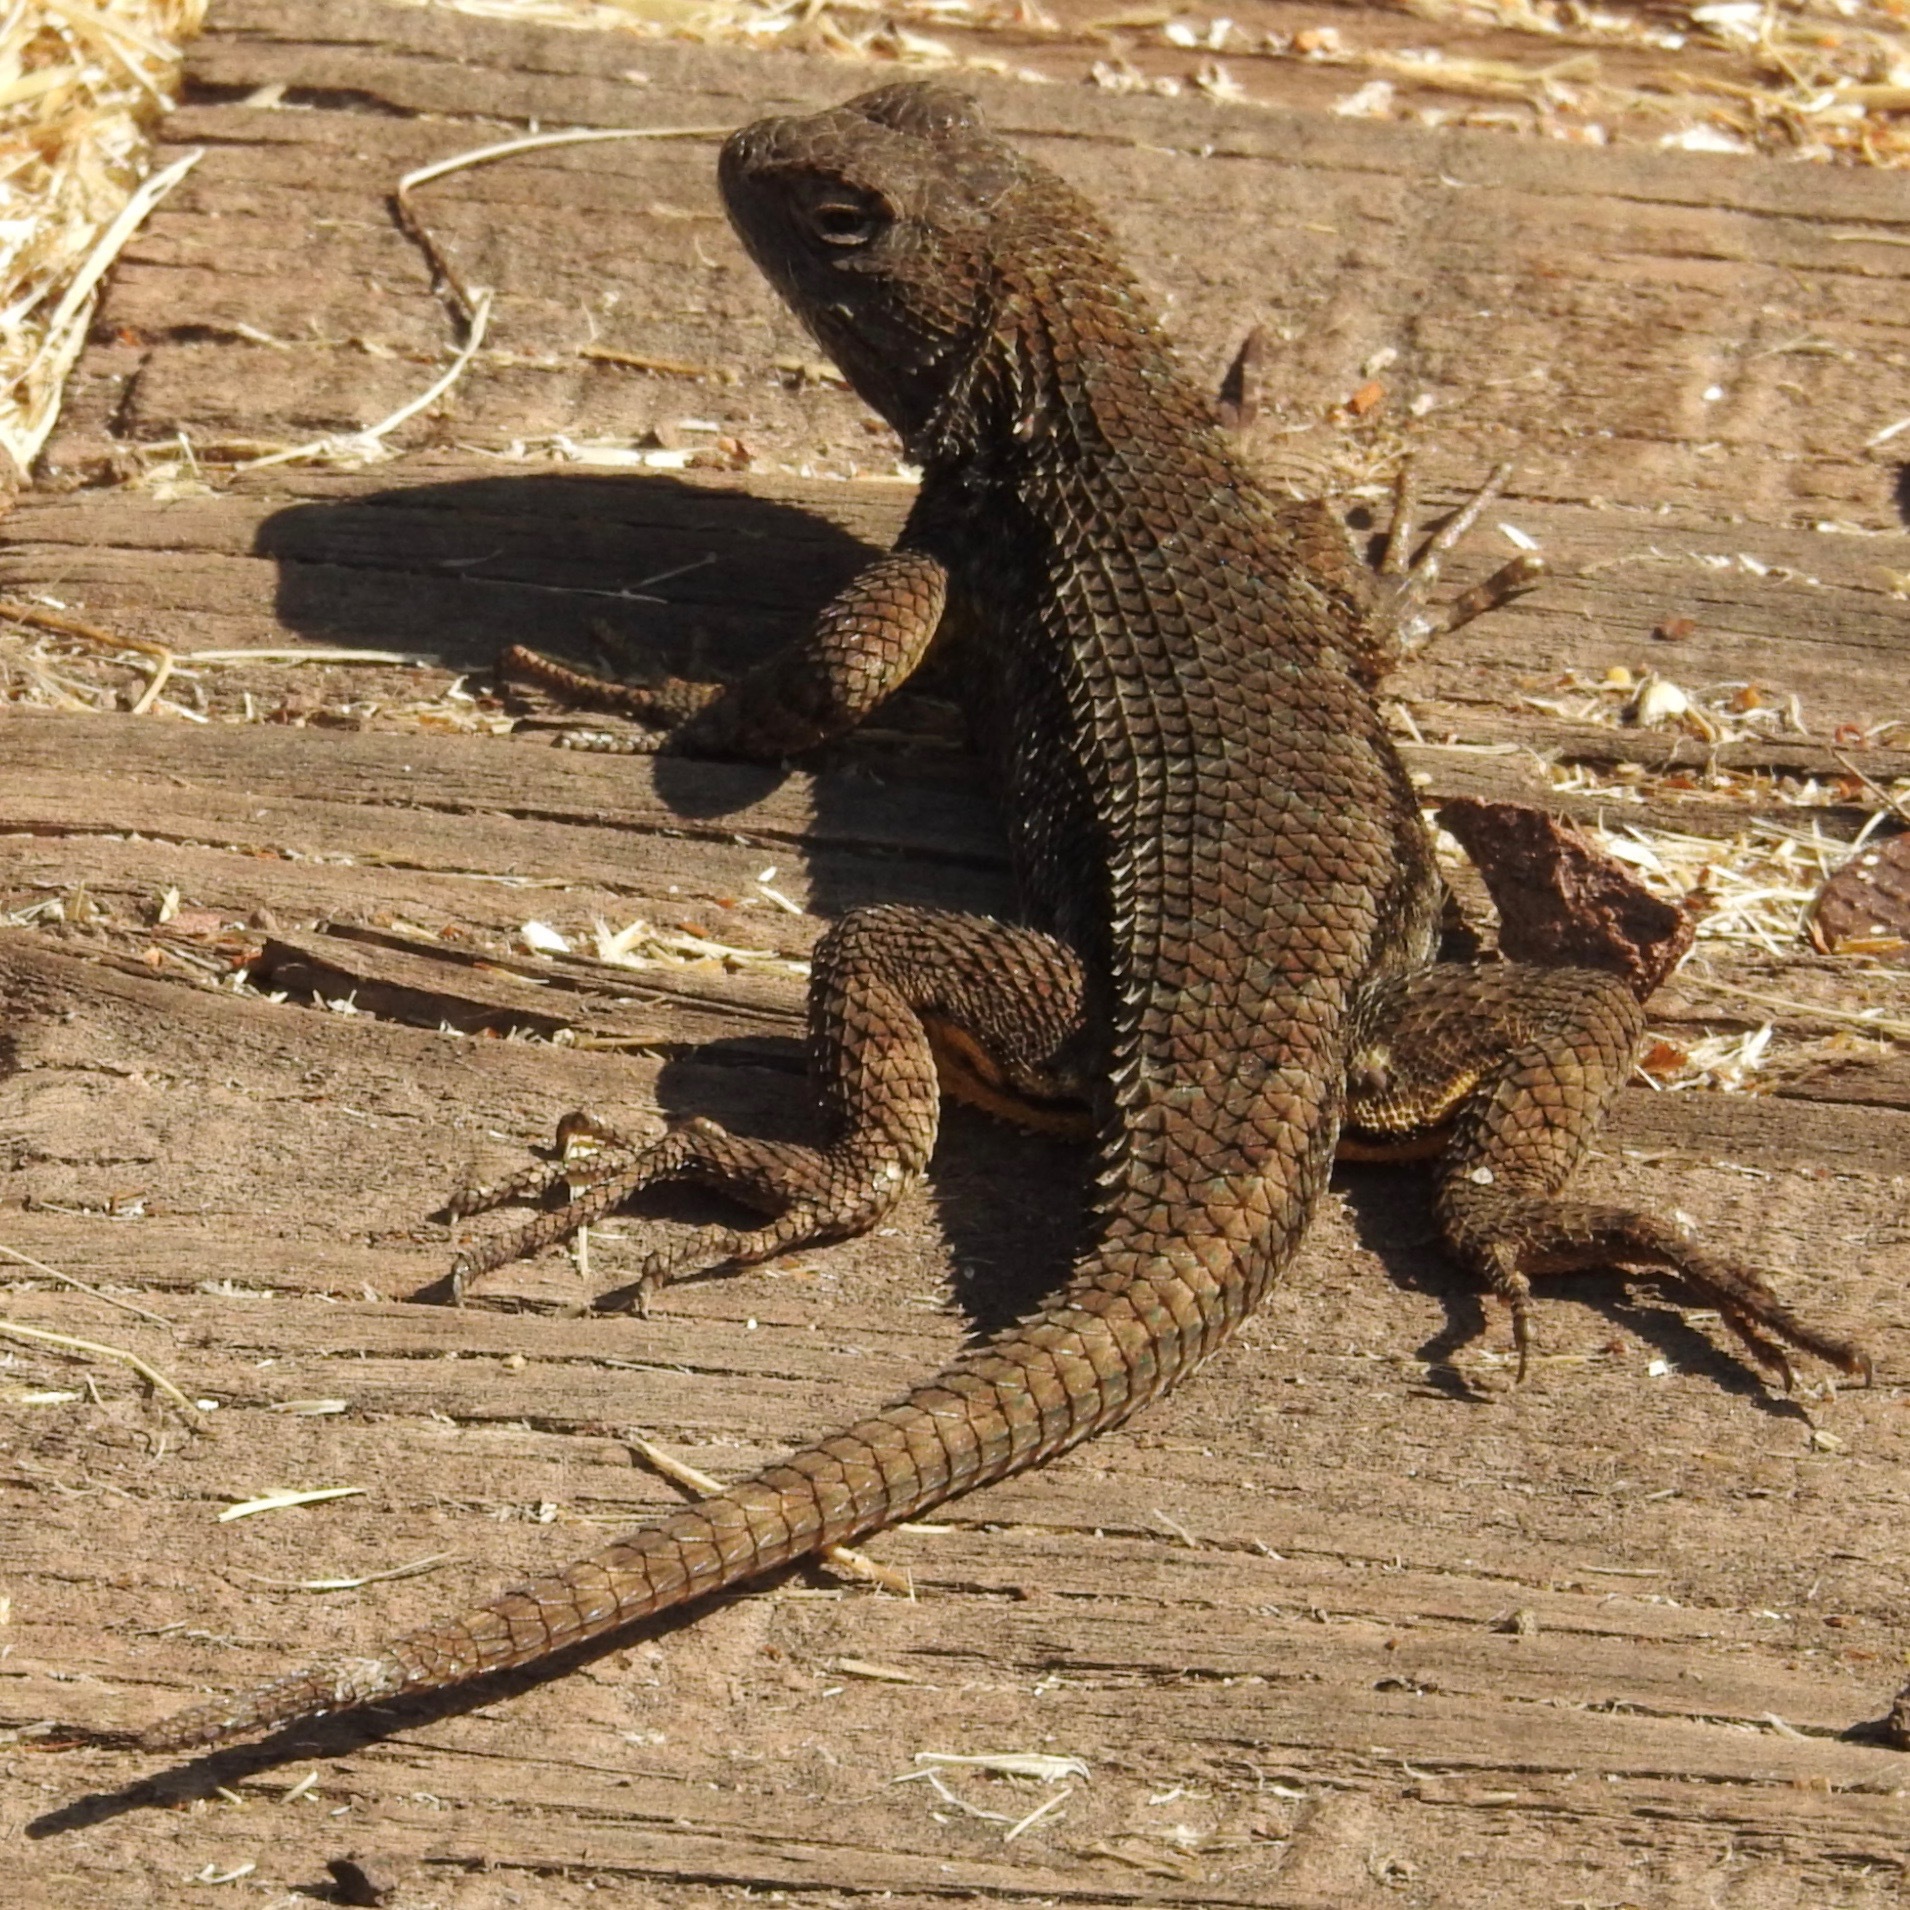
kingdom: Animalia
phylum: Chordata
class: Squamata
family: Phrynosomatidae
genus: Sceloporus
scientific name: Sceloporus occidentalis
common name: Western fence lizard
